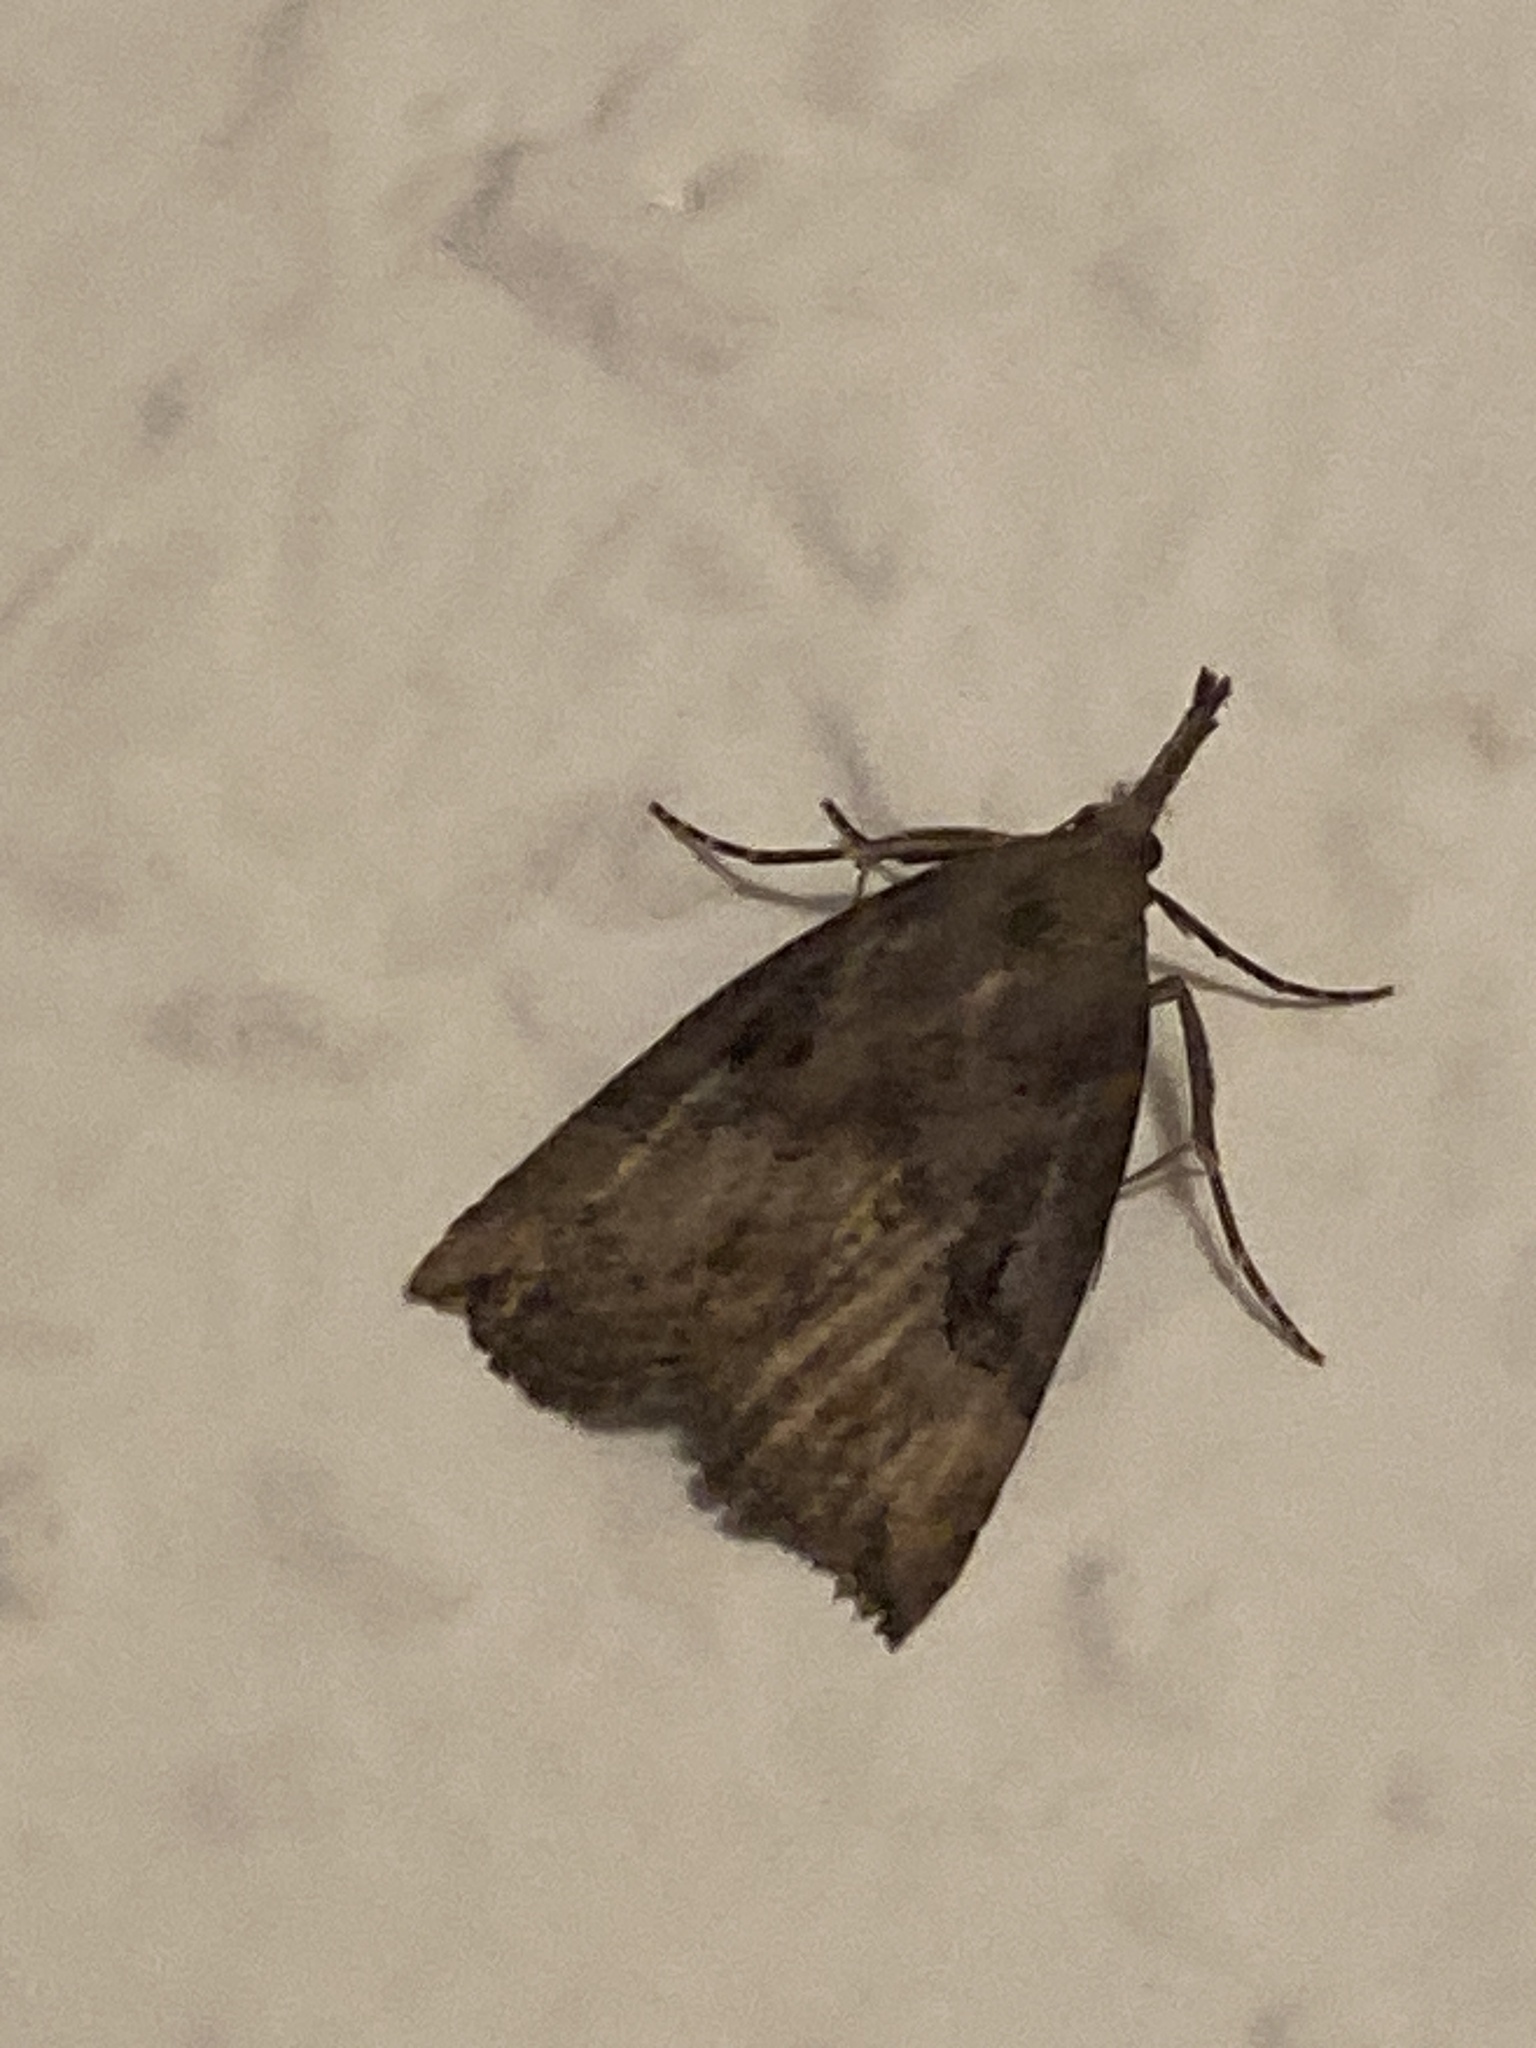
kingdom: Animalia
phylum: Arthropoda
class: Insecta
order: Lepidoptera
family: Erebidae
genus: Hypena
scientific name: Hypena rostralis
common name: Buttoned snout
